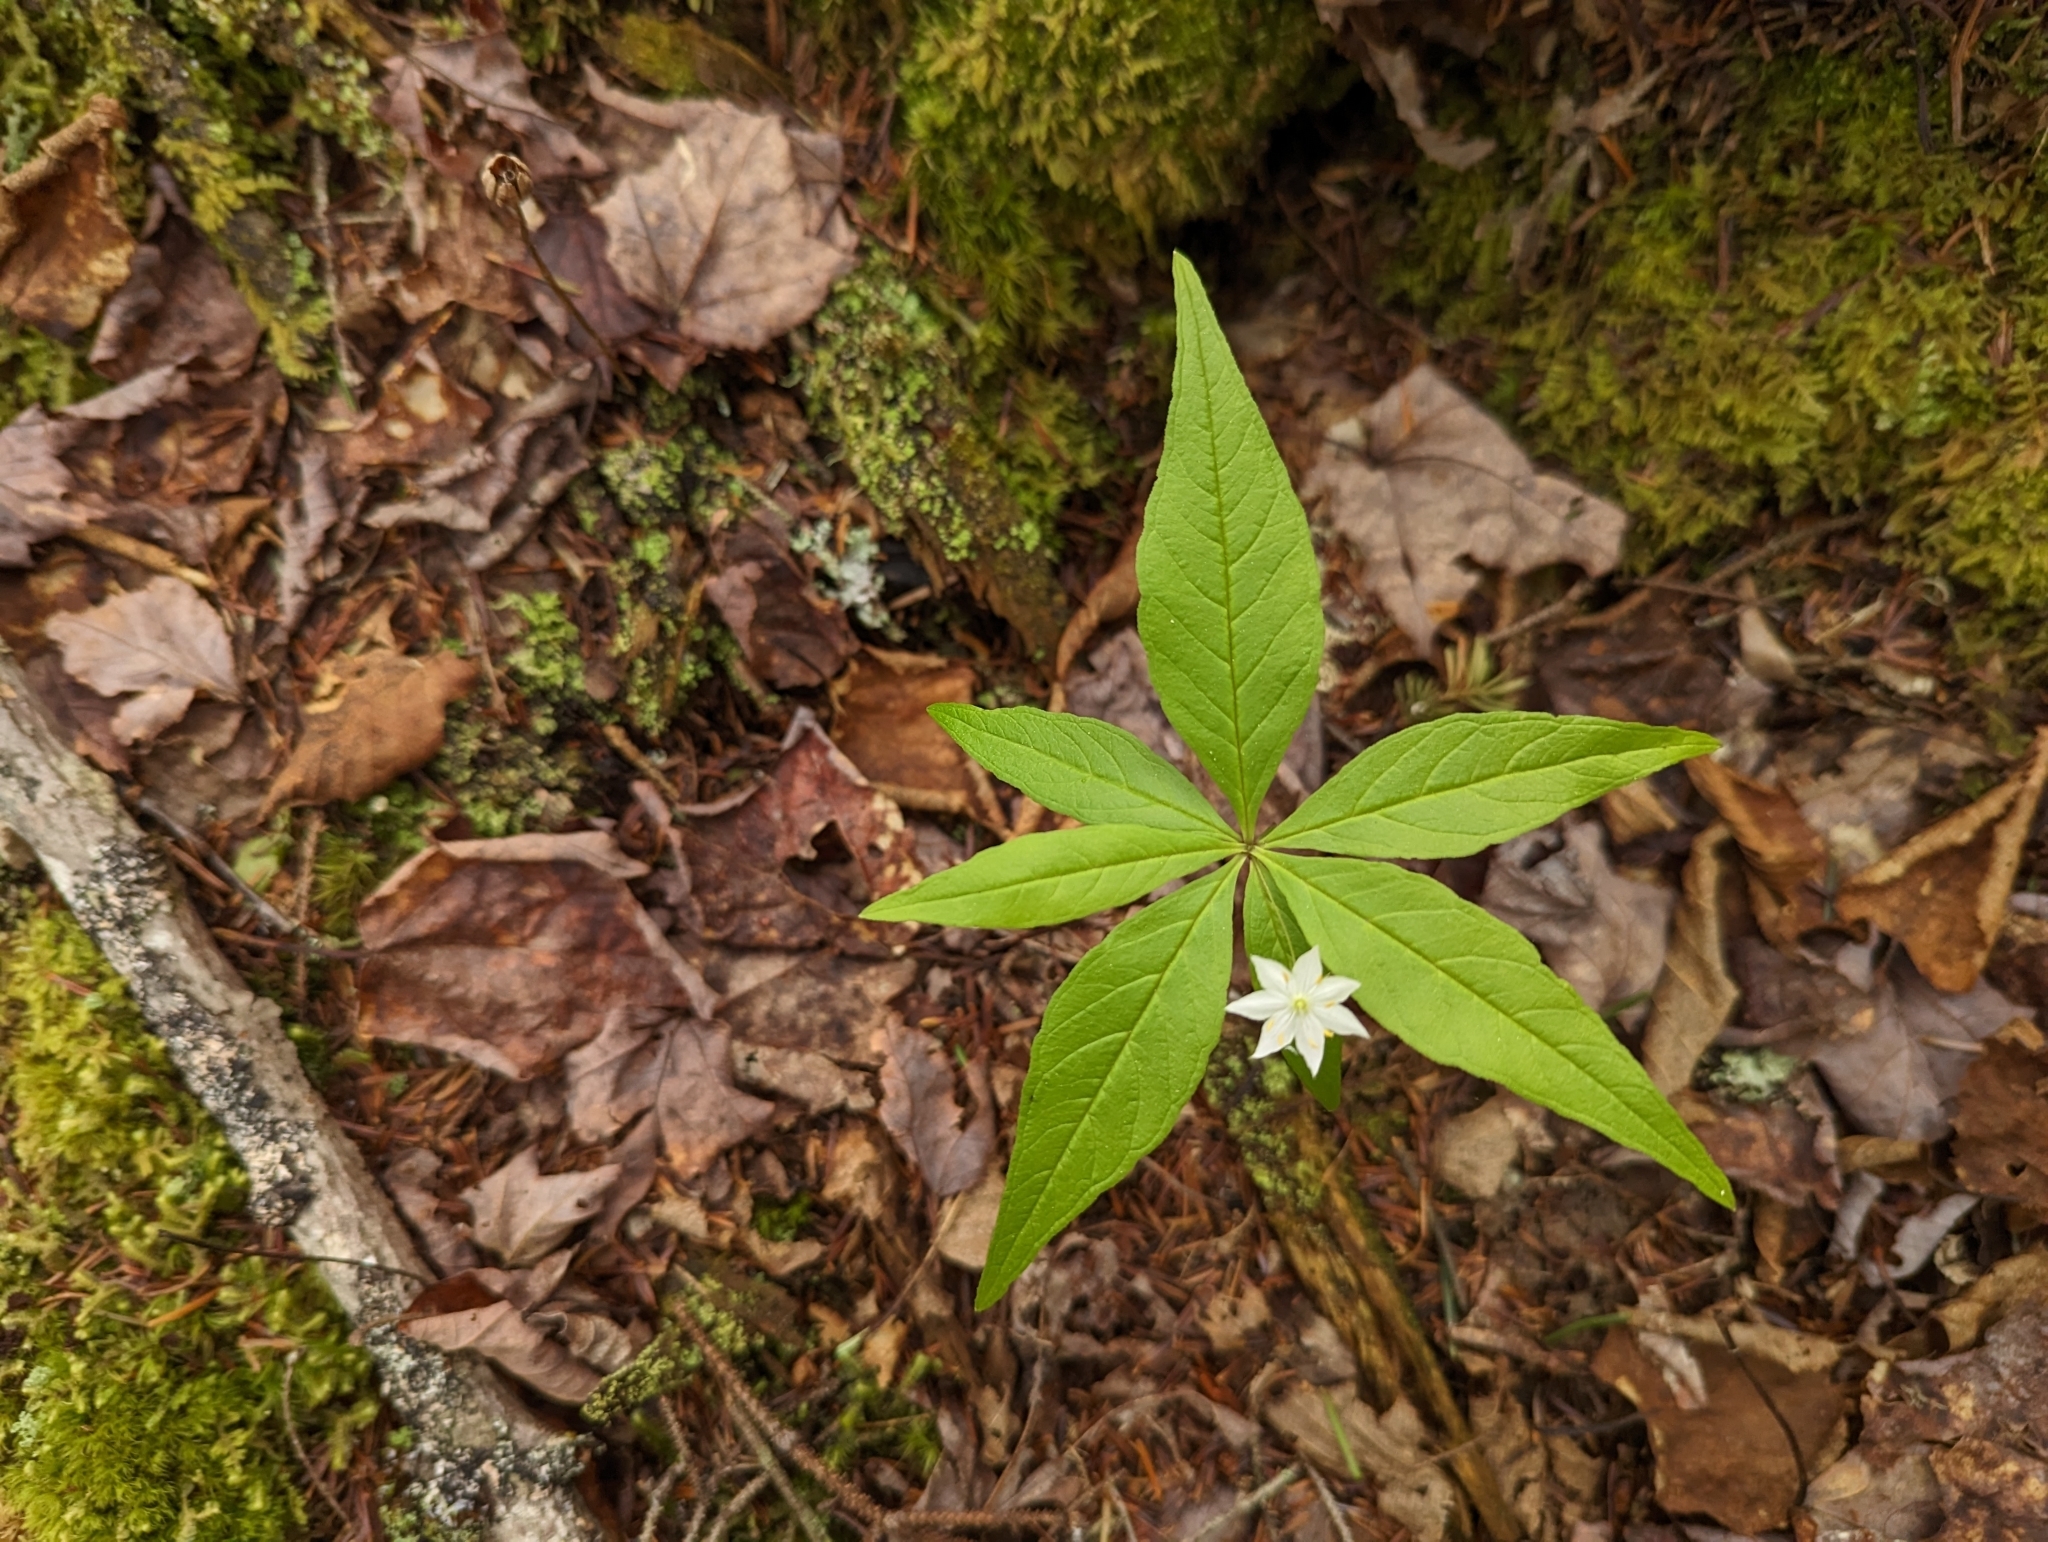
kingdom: Plantae
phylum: Tracheophyta
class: Magnoliopsida
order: Ericales
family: Primulaceae
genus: Lysimachia
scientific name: Lysimachia borealis
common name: American starflower
